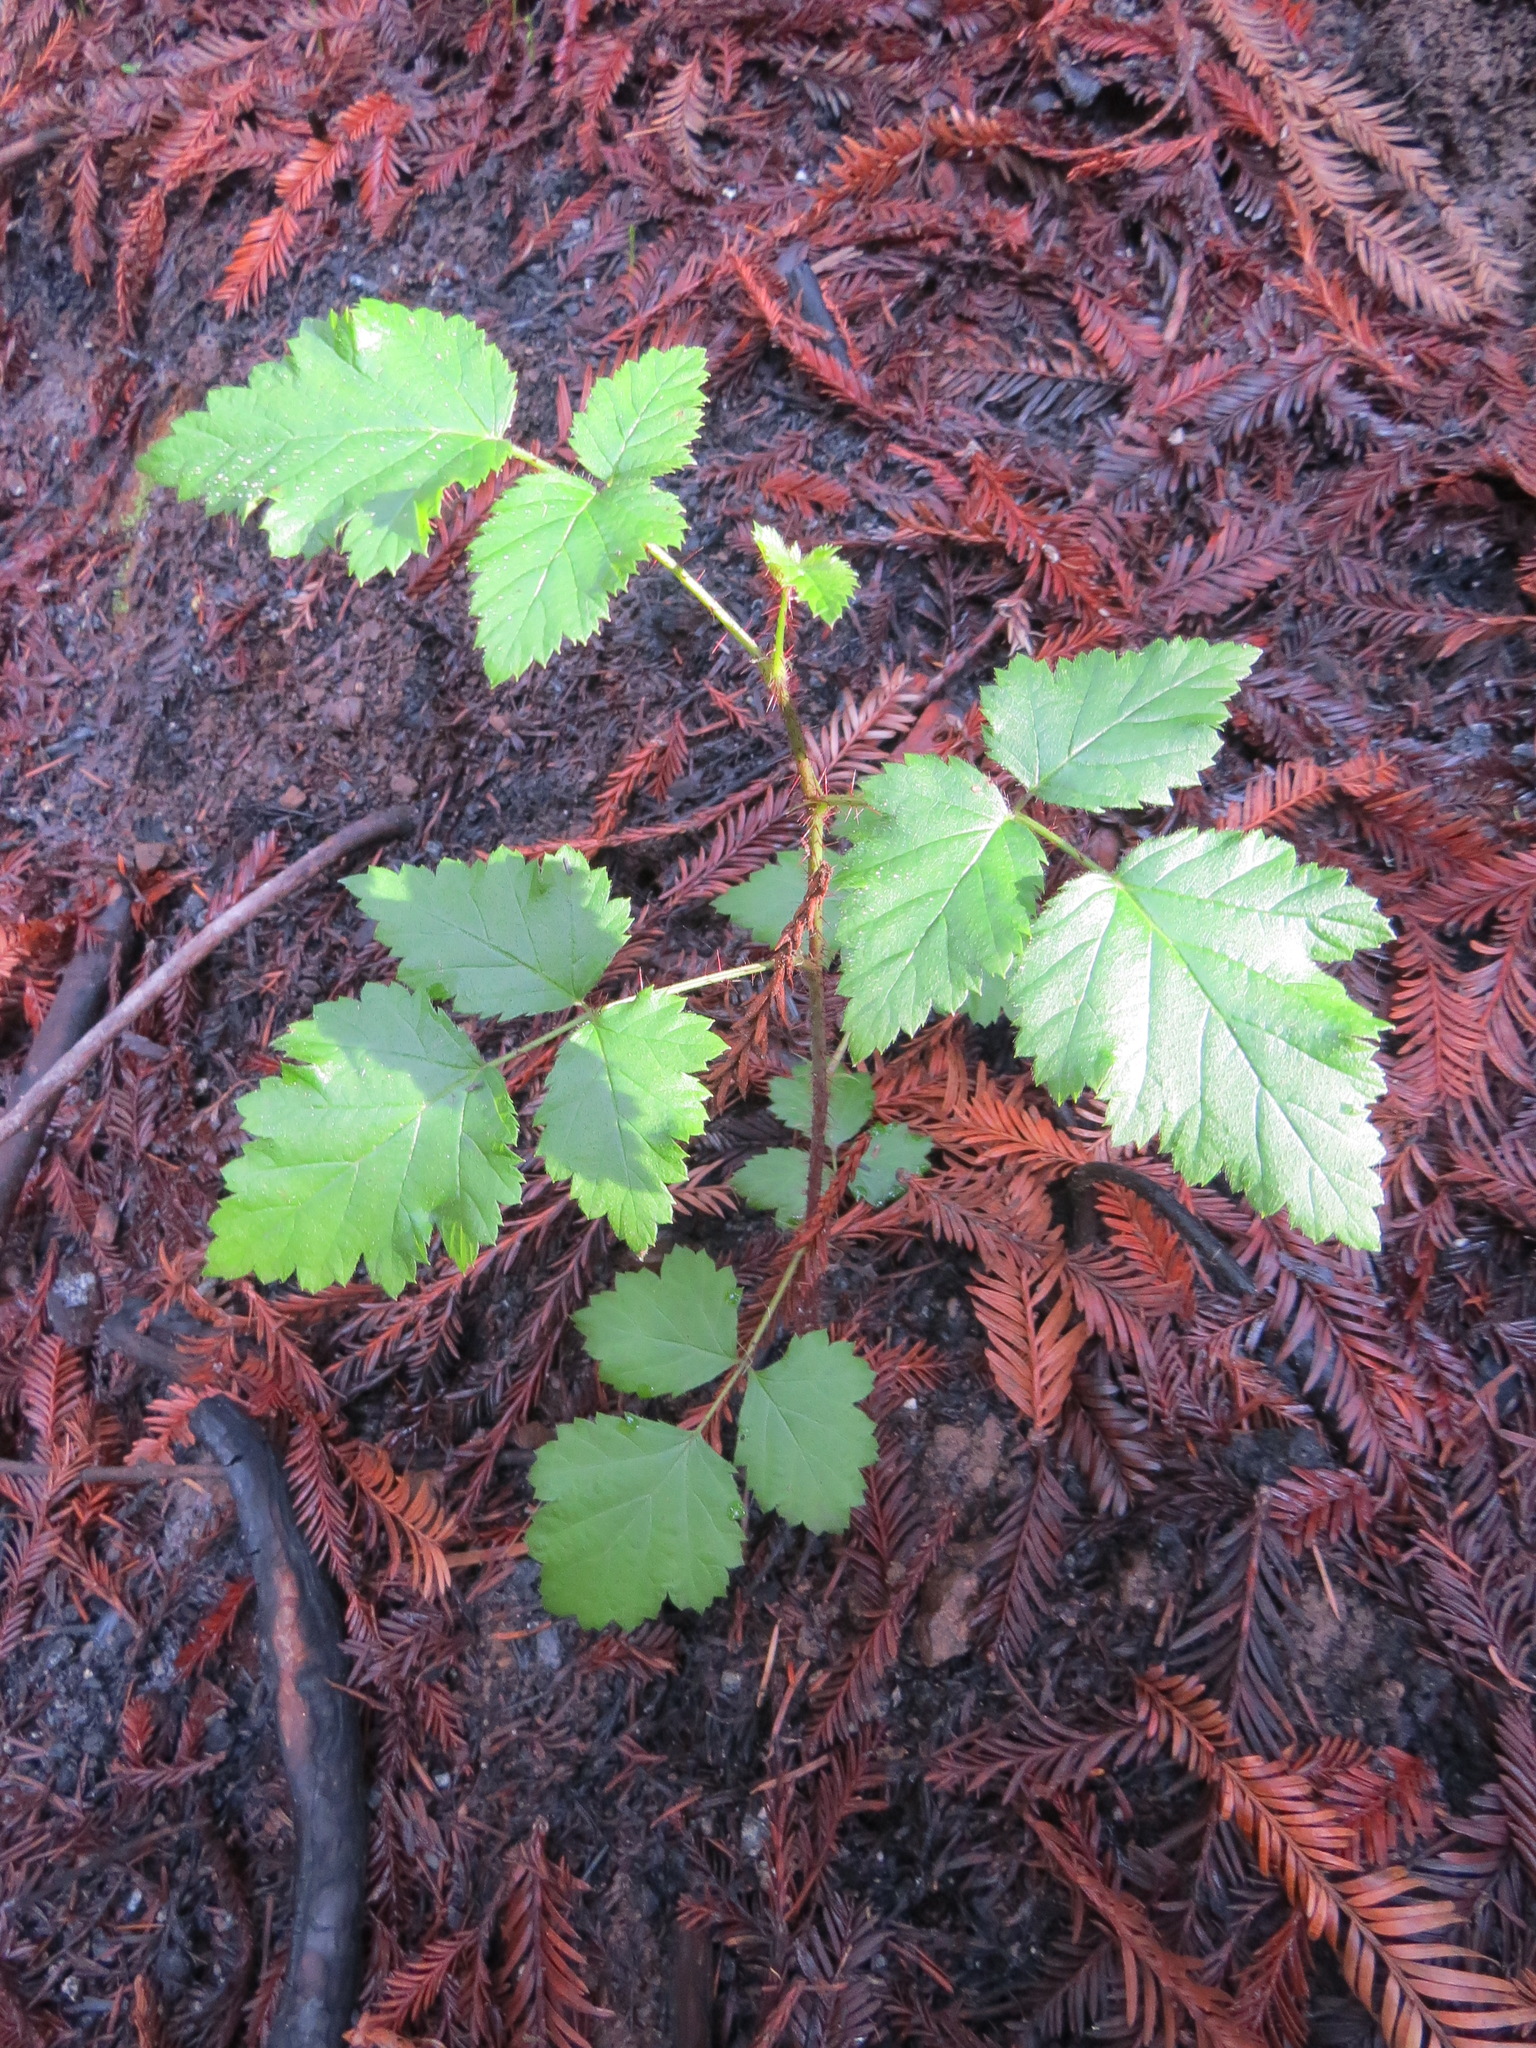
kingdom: Plantae
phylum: Tracheophyta
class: Magnoliopsida
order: Rosales
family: Rosaceae
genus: Rubus
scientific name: Rubus ursinus
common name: Pacific blackberry
